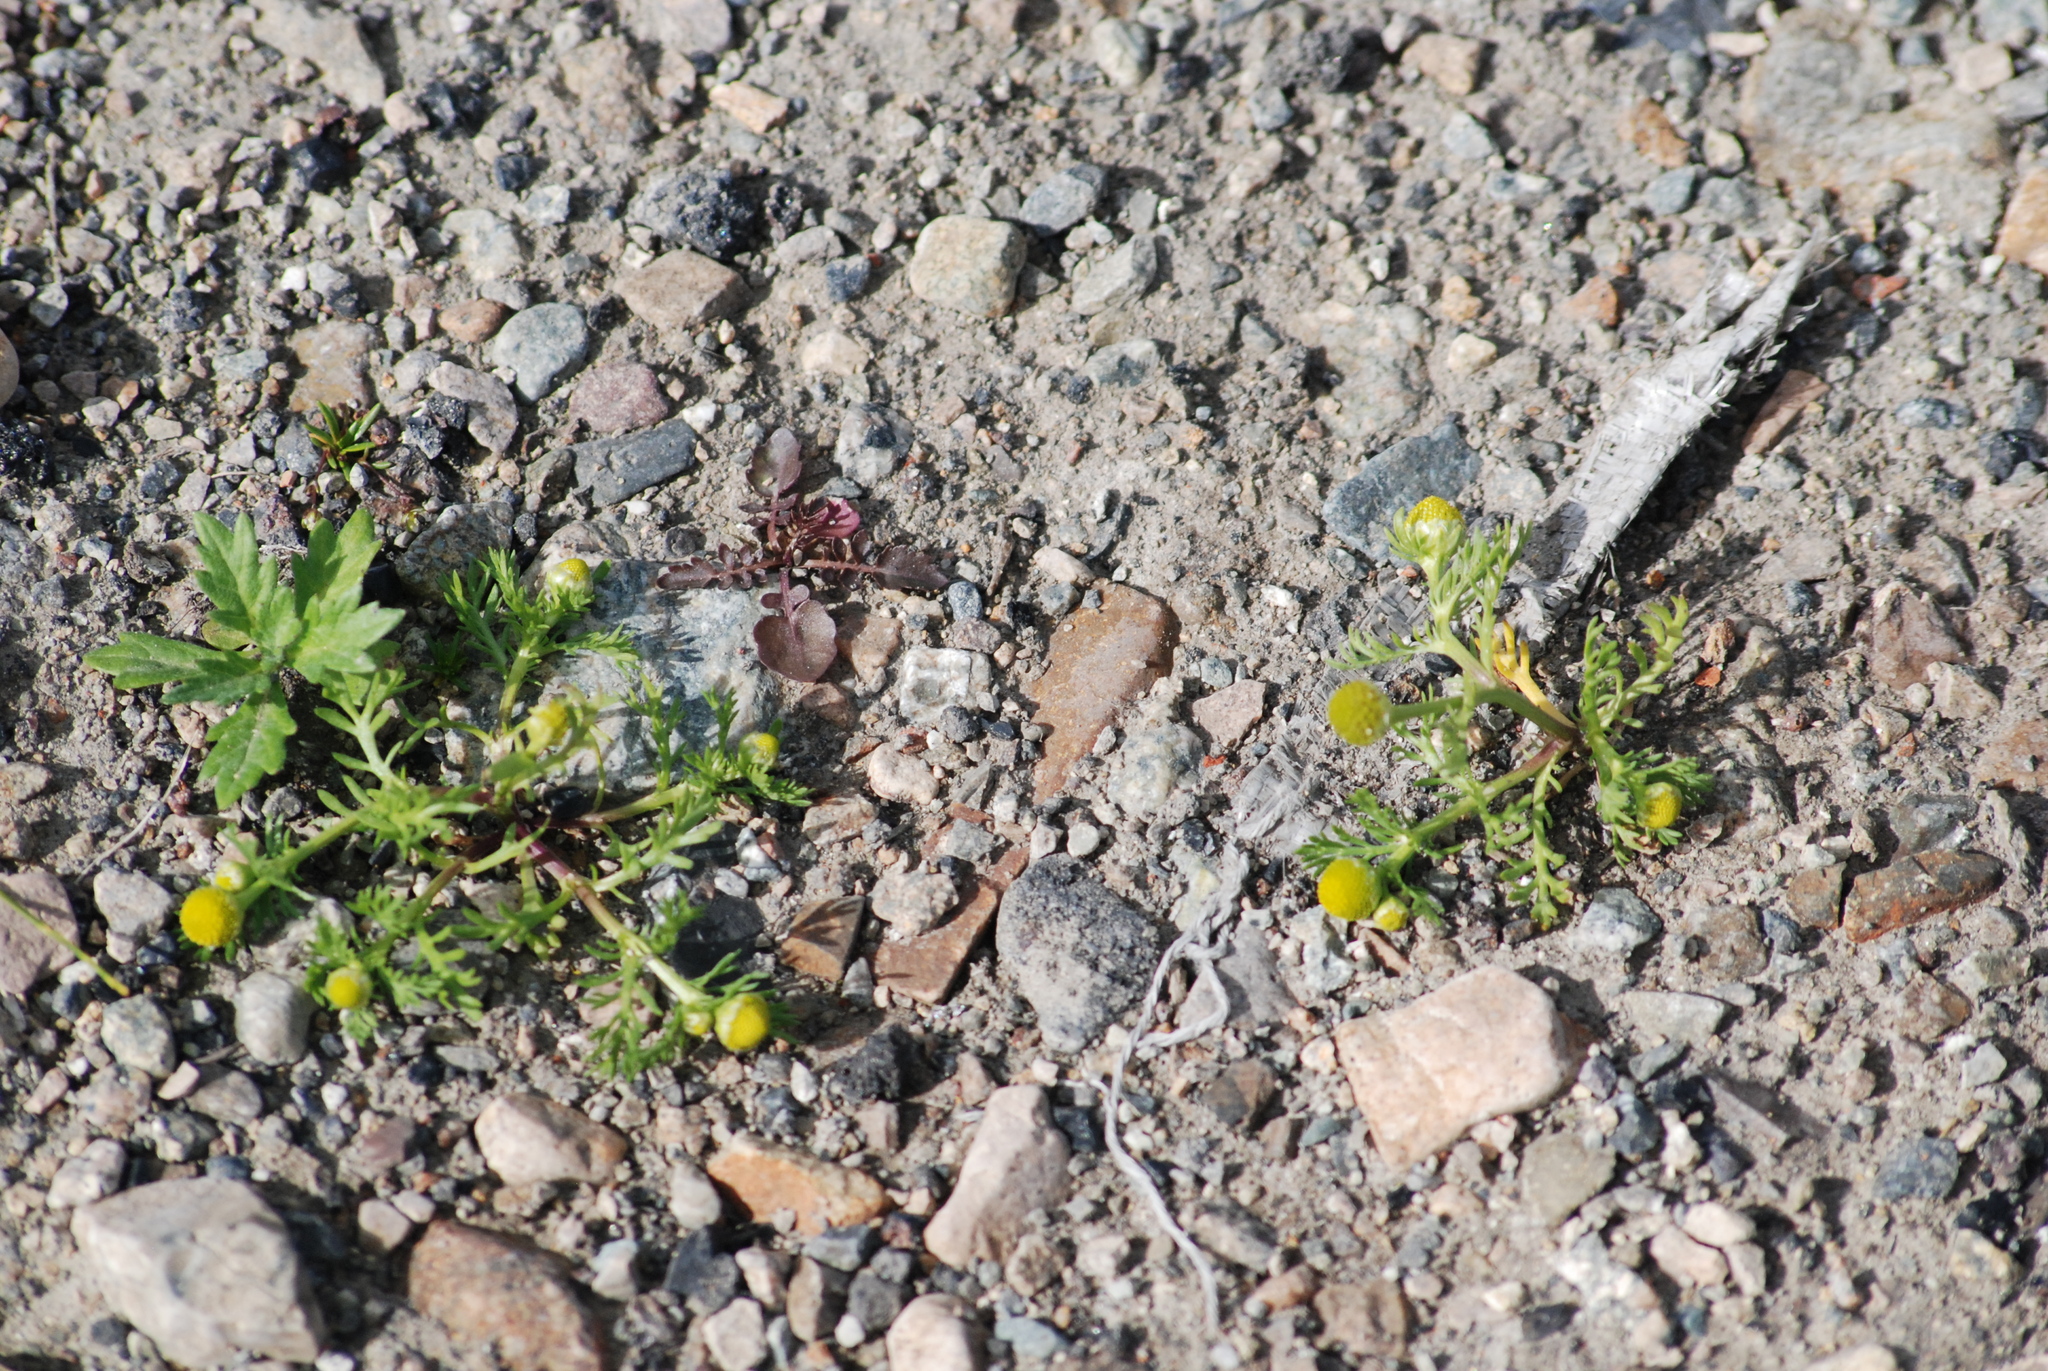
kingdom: Plantae
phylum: Tracheophyta
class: Magnoliopsida
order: Asterales
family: Asteraceae
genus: Matricaria
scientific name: Matricaria discoidea
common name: Disc mayweed
